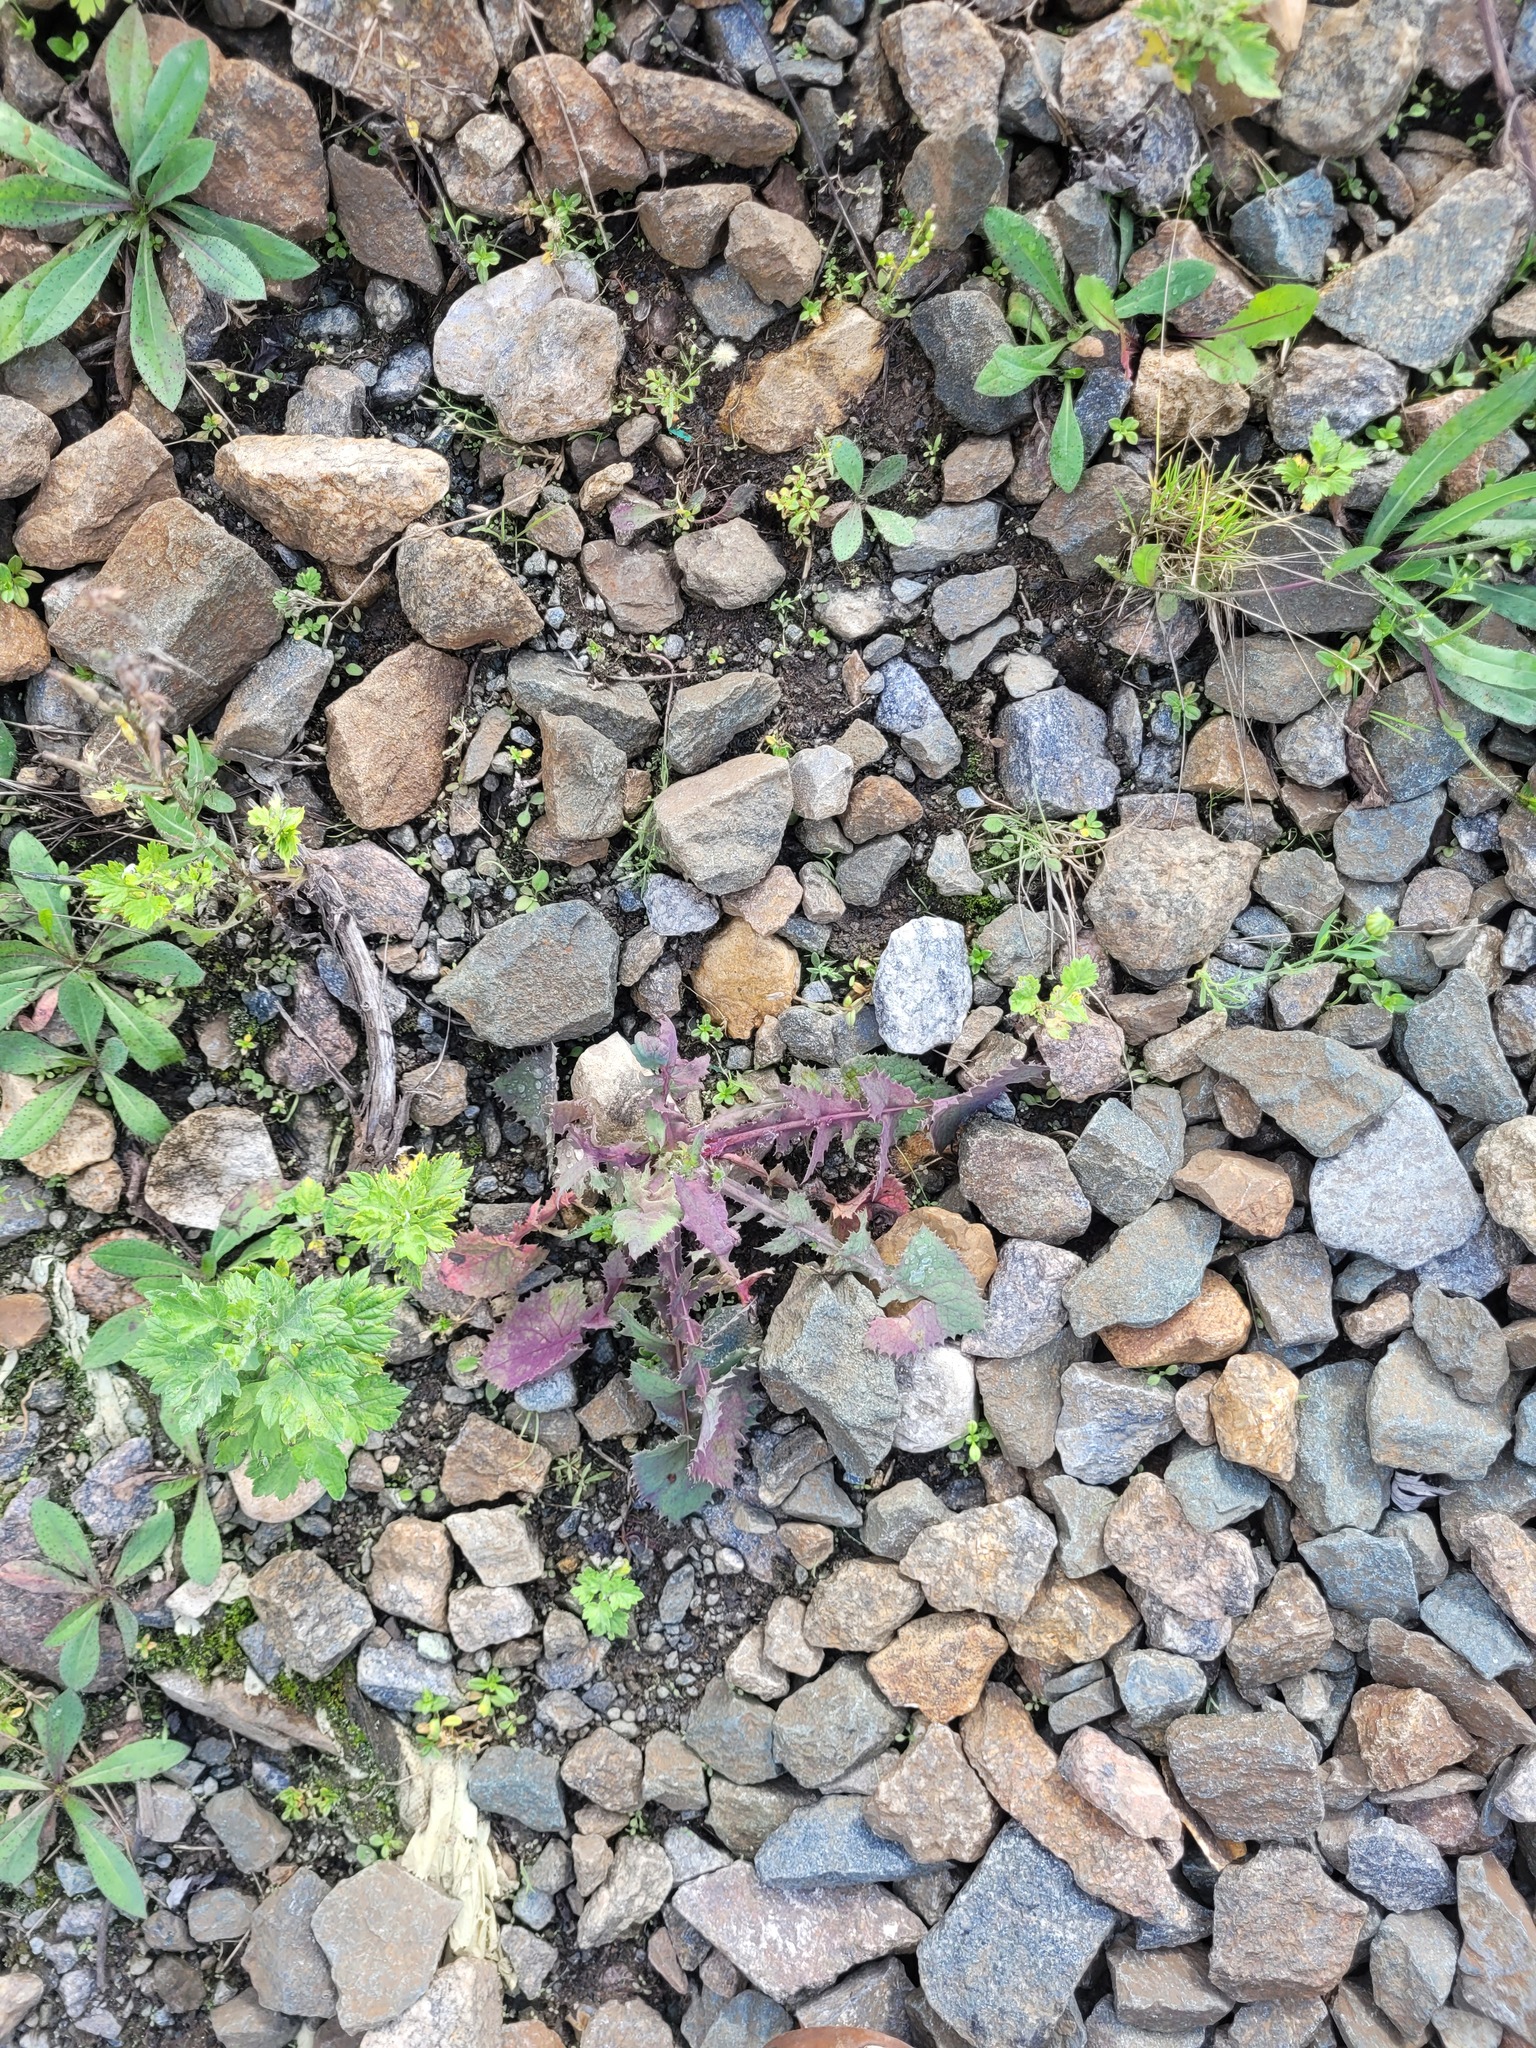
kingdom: Plantae
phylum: Tracheophyta
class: Magnoliopsida
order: Asterales
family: Asteraceae
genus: Sonchus
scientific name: Sonchus oleraceus
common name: Common sowthistle
